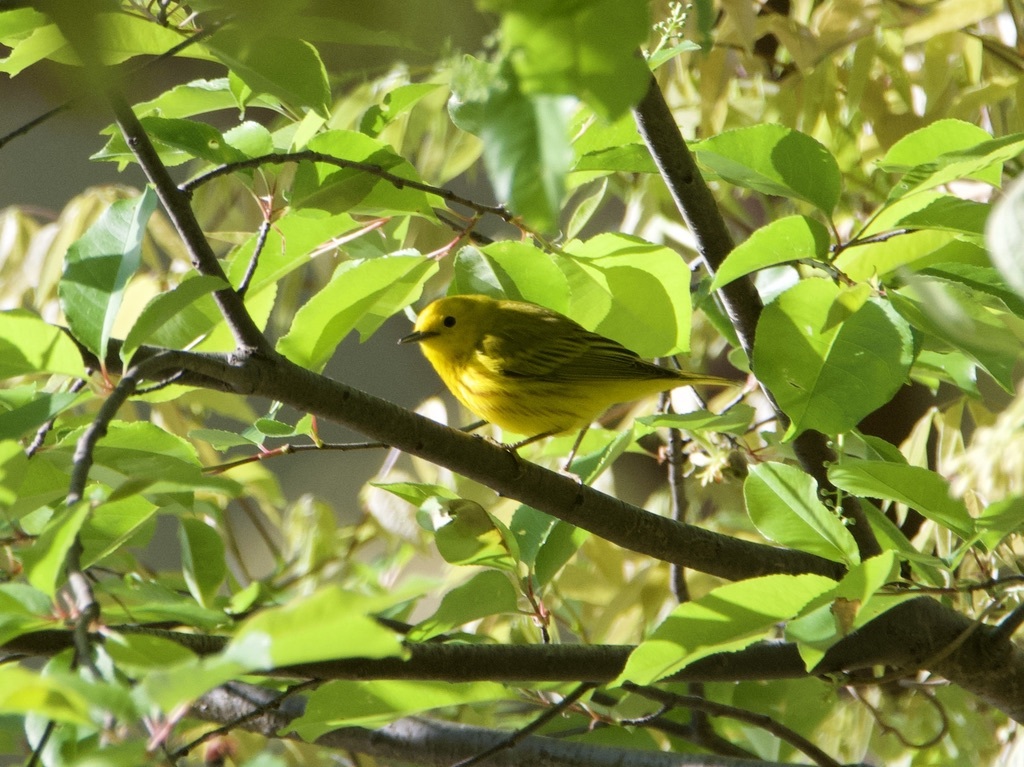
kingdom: Animalia
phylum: Chordata
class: Aves
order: Passeriformes
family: Parulidae
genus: Setophaga
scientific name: Setophaga petechia
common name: Yellow warbler
